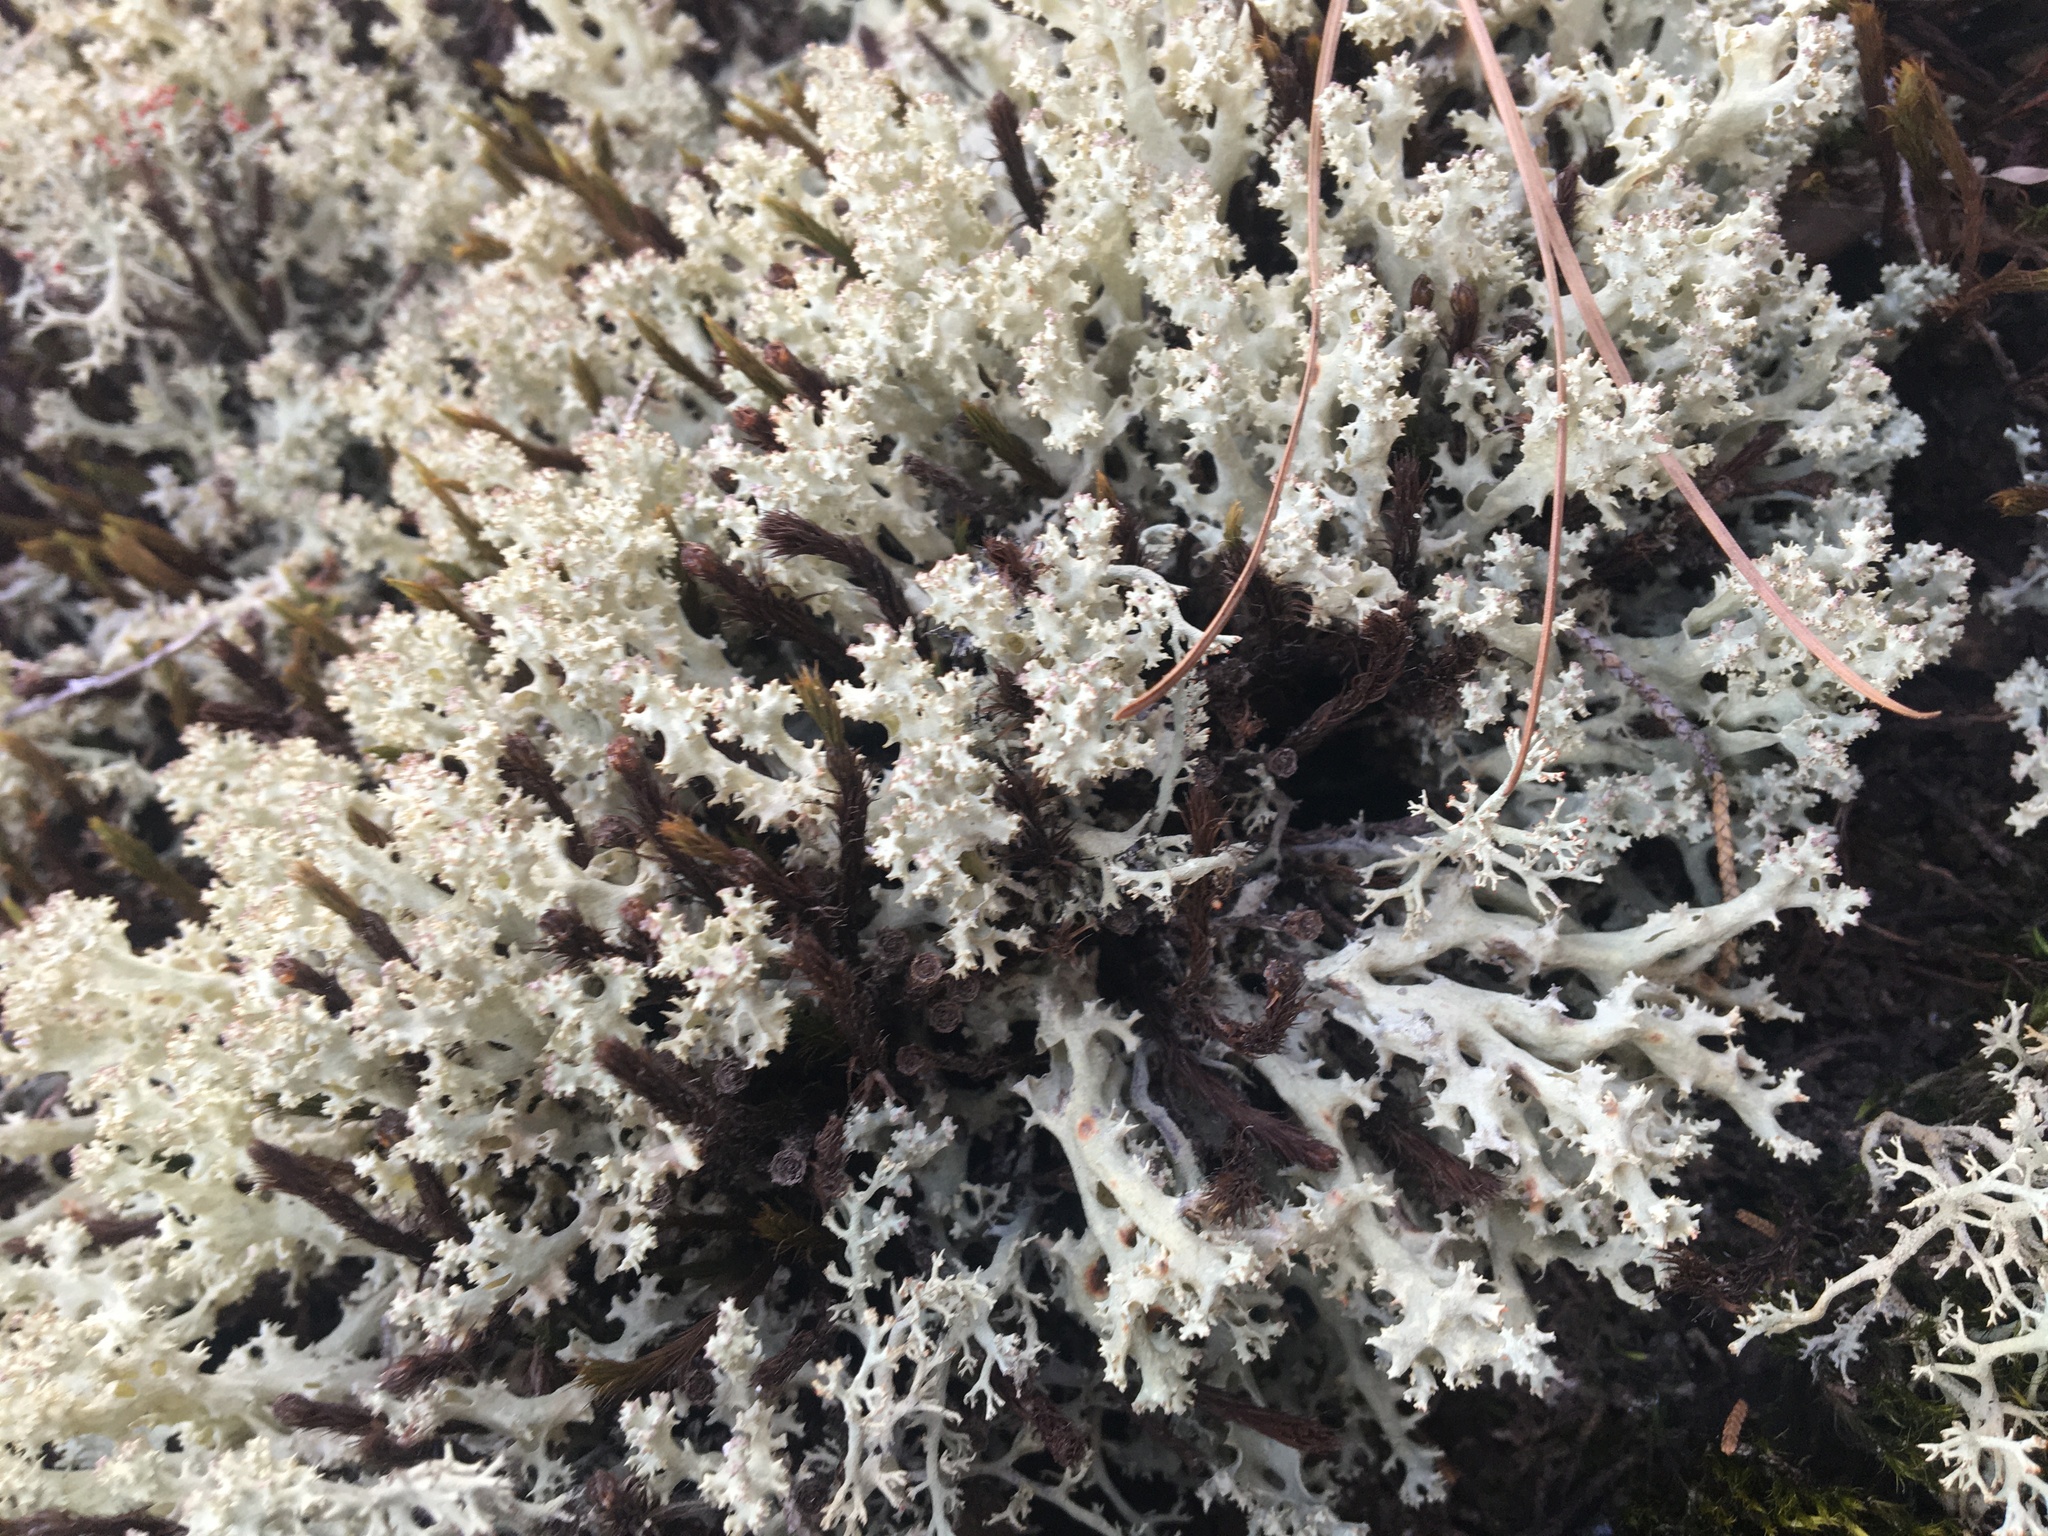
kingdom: Fungi
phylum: Ascomycota
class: Lecanoromycetes
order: Lecanorales
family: Cladoniaceae
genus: Cladonia
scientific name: Cladonia caroliniana
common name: Granite thorn
